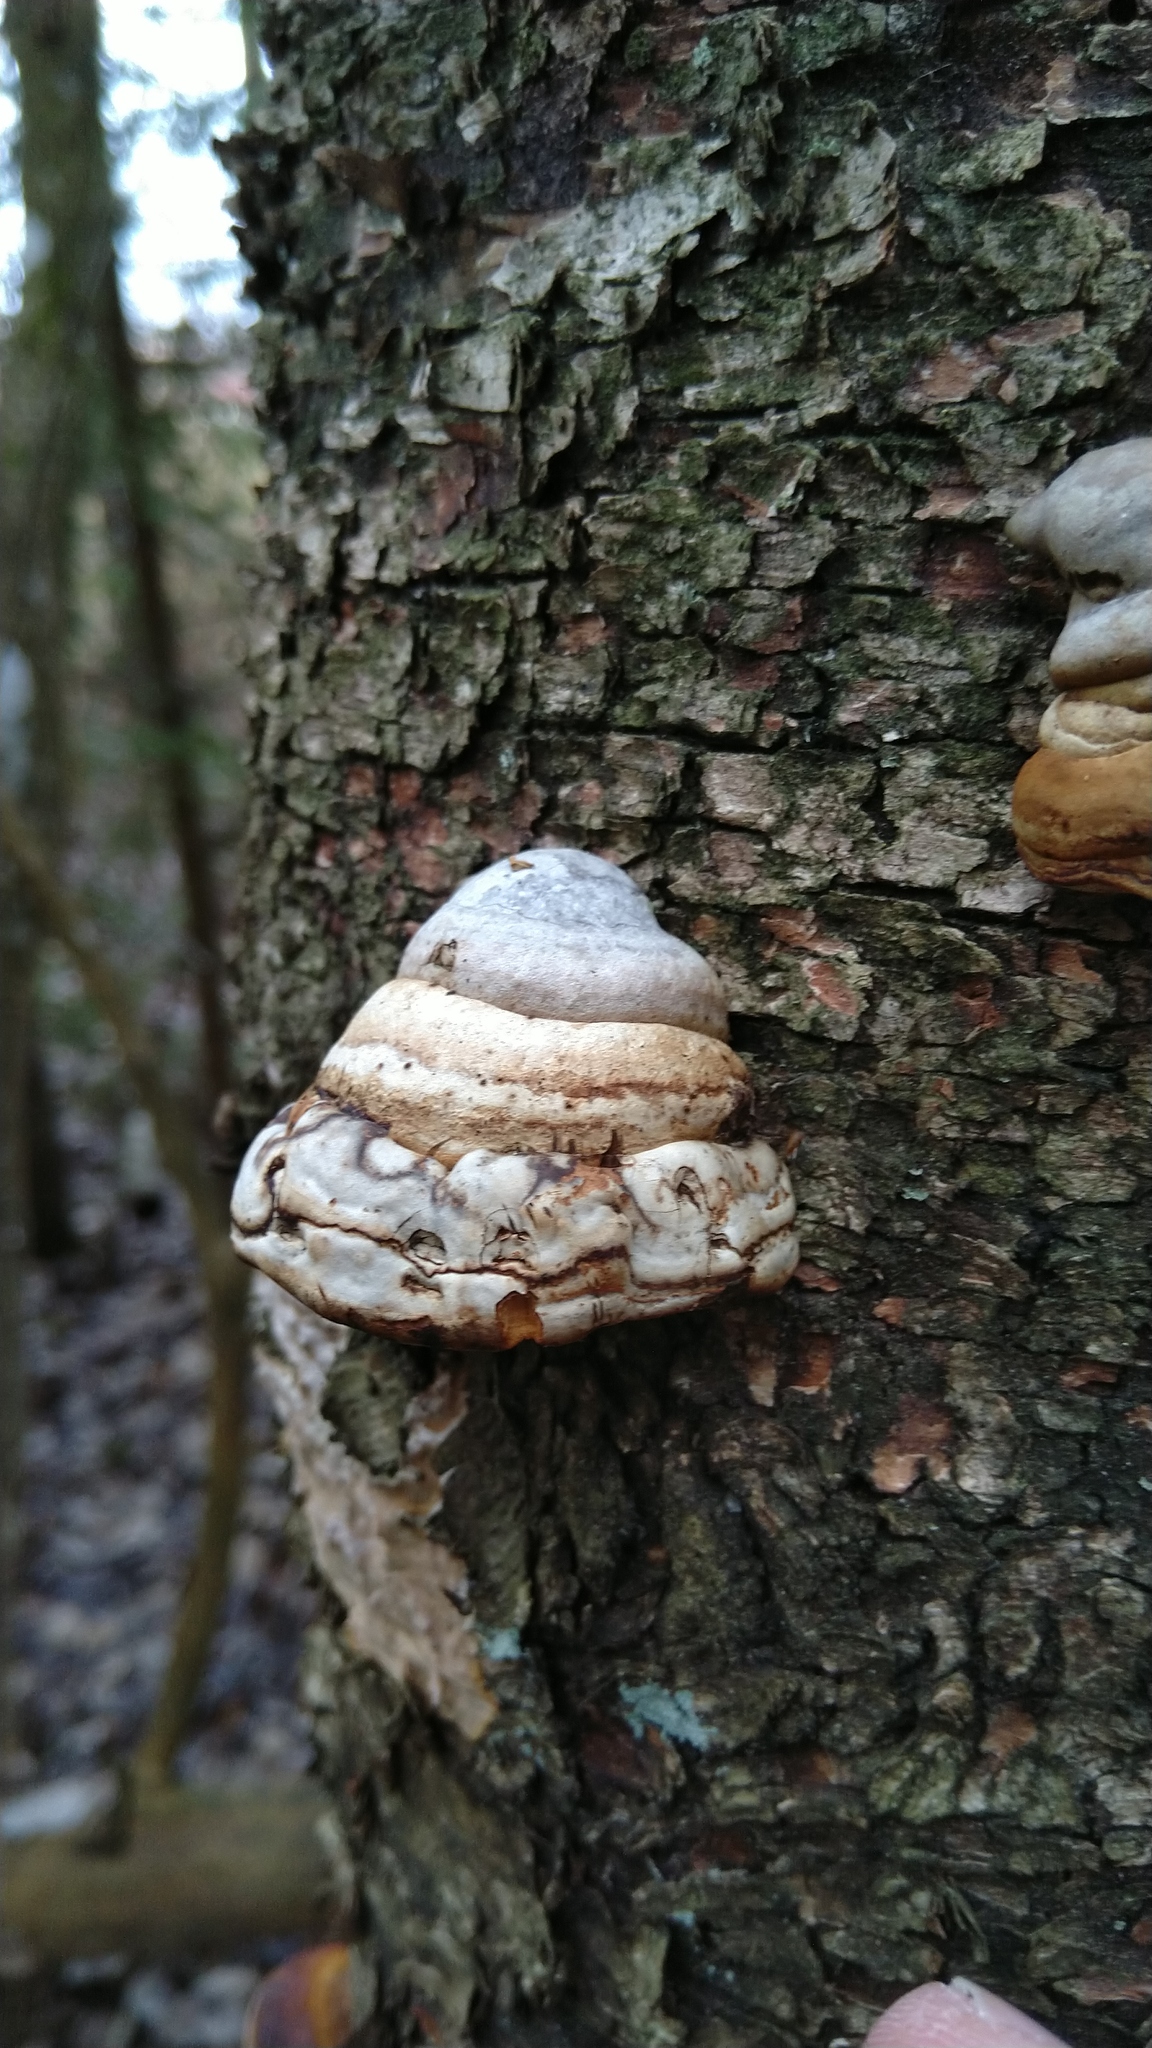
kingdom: Fungi
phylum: Basidiomycota
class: Agaricomycetes
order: Polyporales
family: Polyporaceae
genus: Fomes
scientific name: Fomes fomentarius
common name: Hoof fungus
